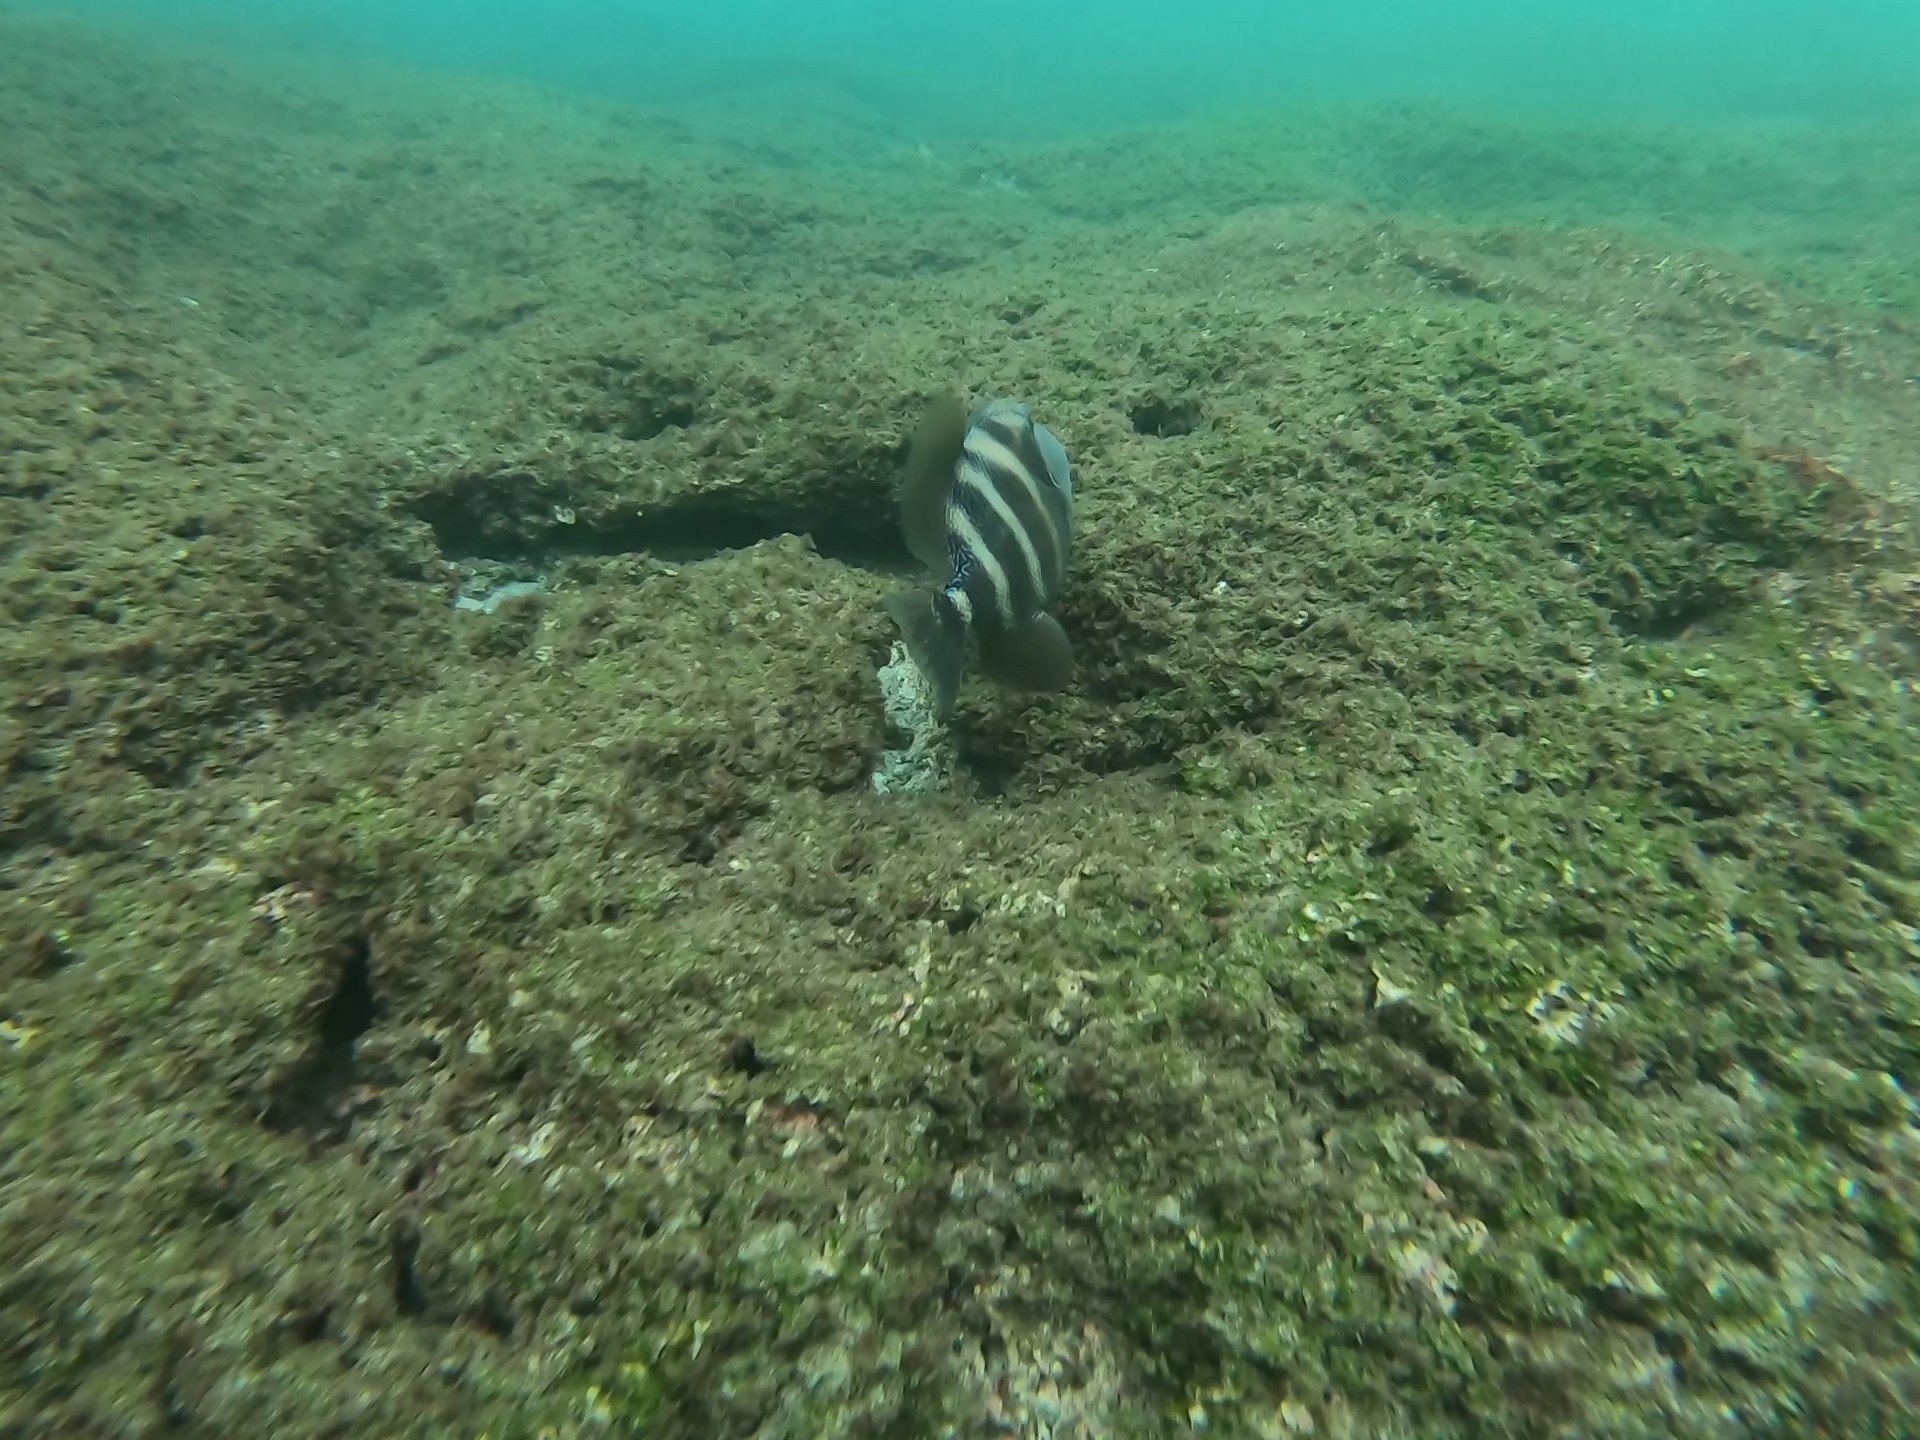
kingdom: Animalia
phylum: Chordata
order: Tetraodontiformes
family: Balistidae
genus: Pseudobalistes
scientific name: Pseudobalistes naufragium
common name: Blunthead triggerfish
